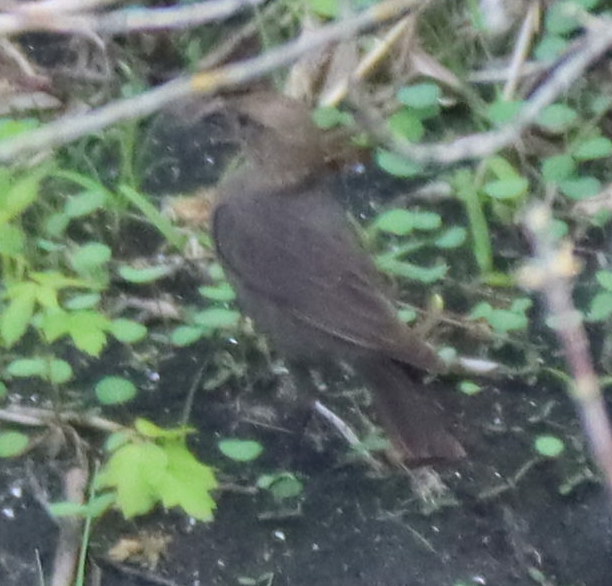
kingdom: Animalia
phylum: Chordata
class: Aves
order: Passeriformes
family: Icteridae
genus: Molothrus
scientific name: Molothrus ater
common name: Brown-headed cowbird
